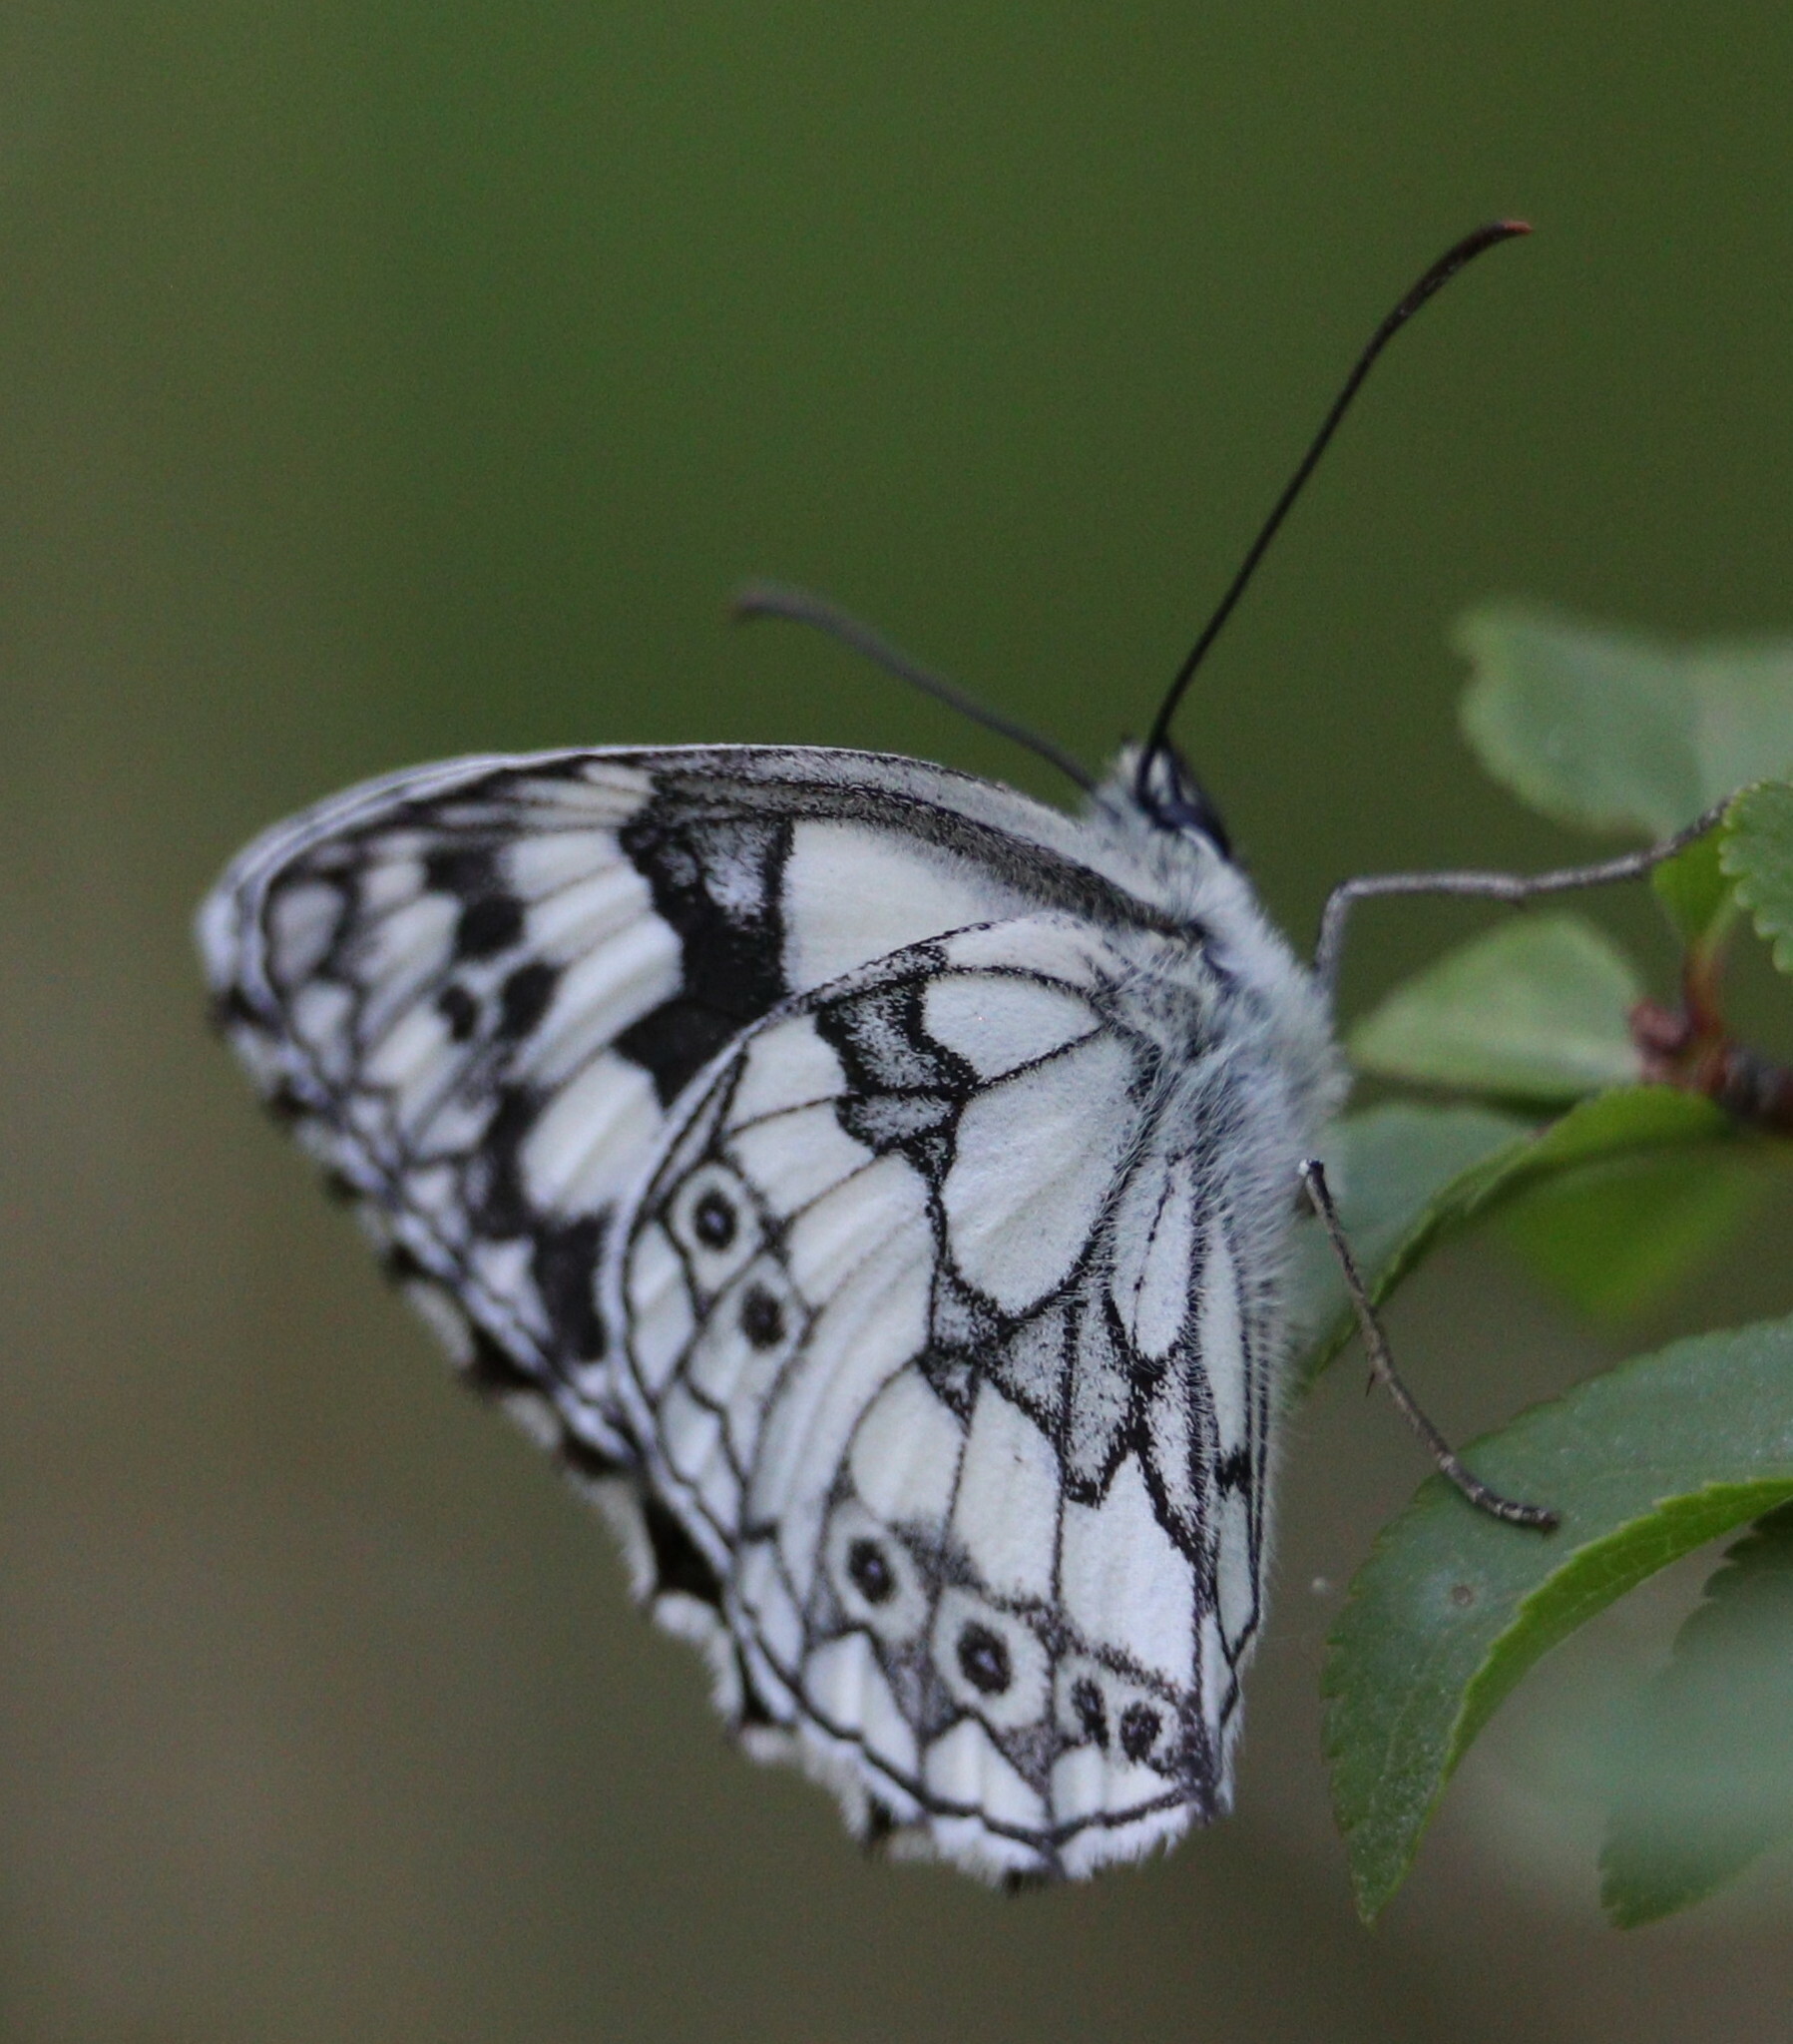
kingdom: Animalia
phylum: Arthropoda
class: Insecta
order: Lepidoptera
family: Nymphalidae
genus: Melanargia
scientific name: Melanargia galathea
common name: Marbled white
